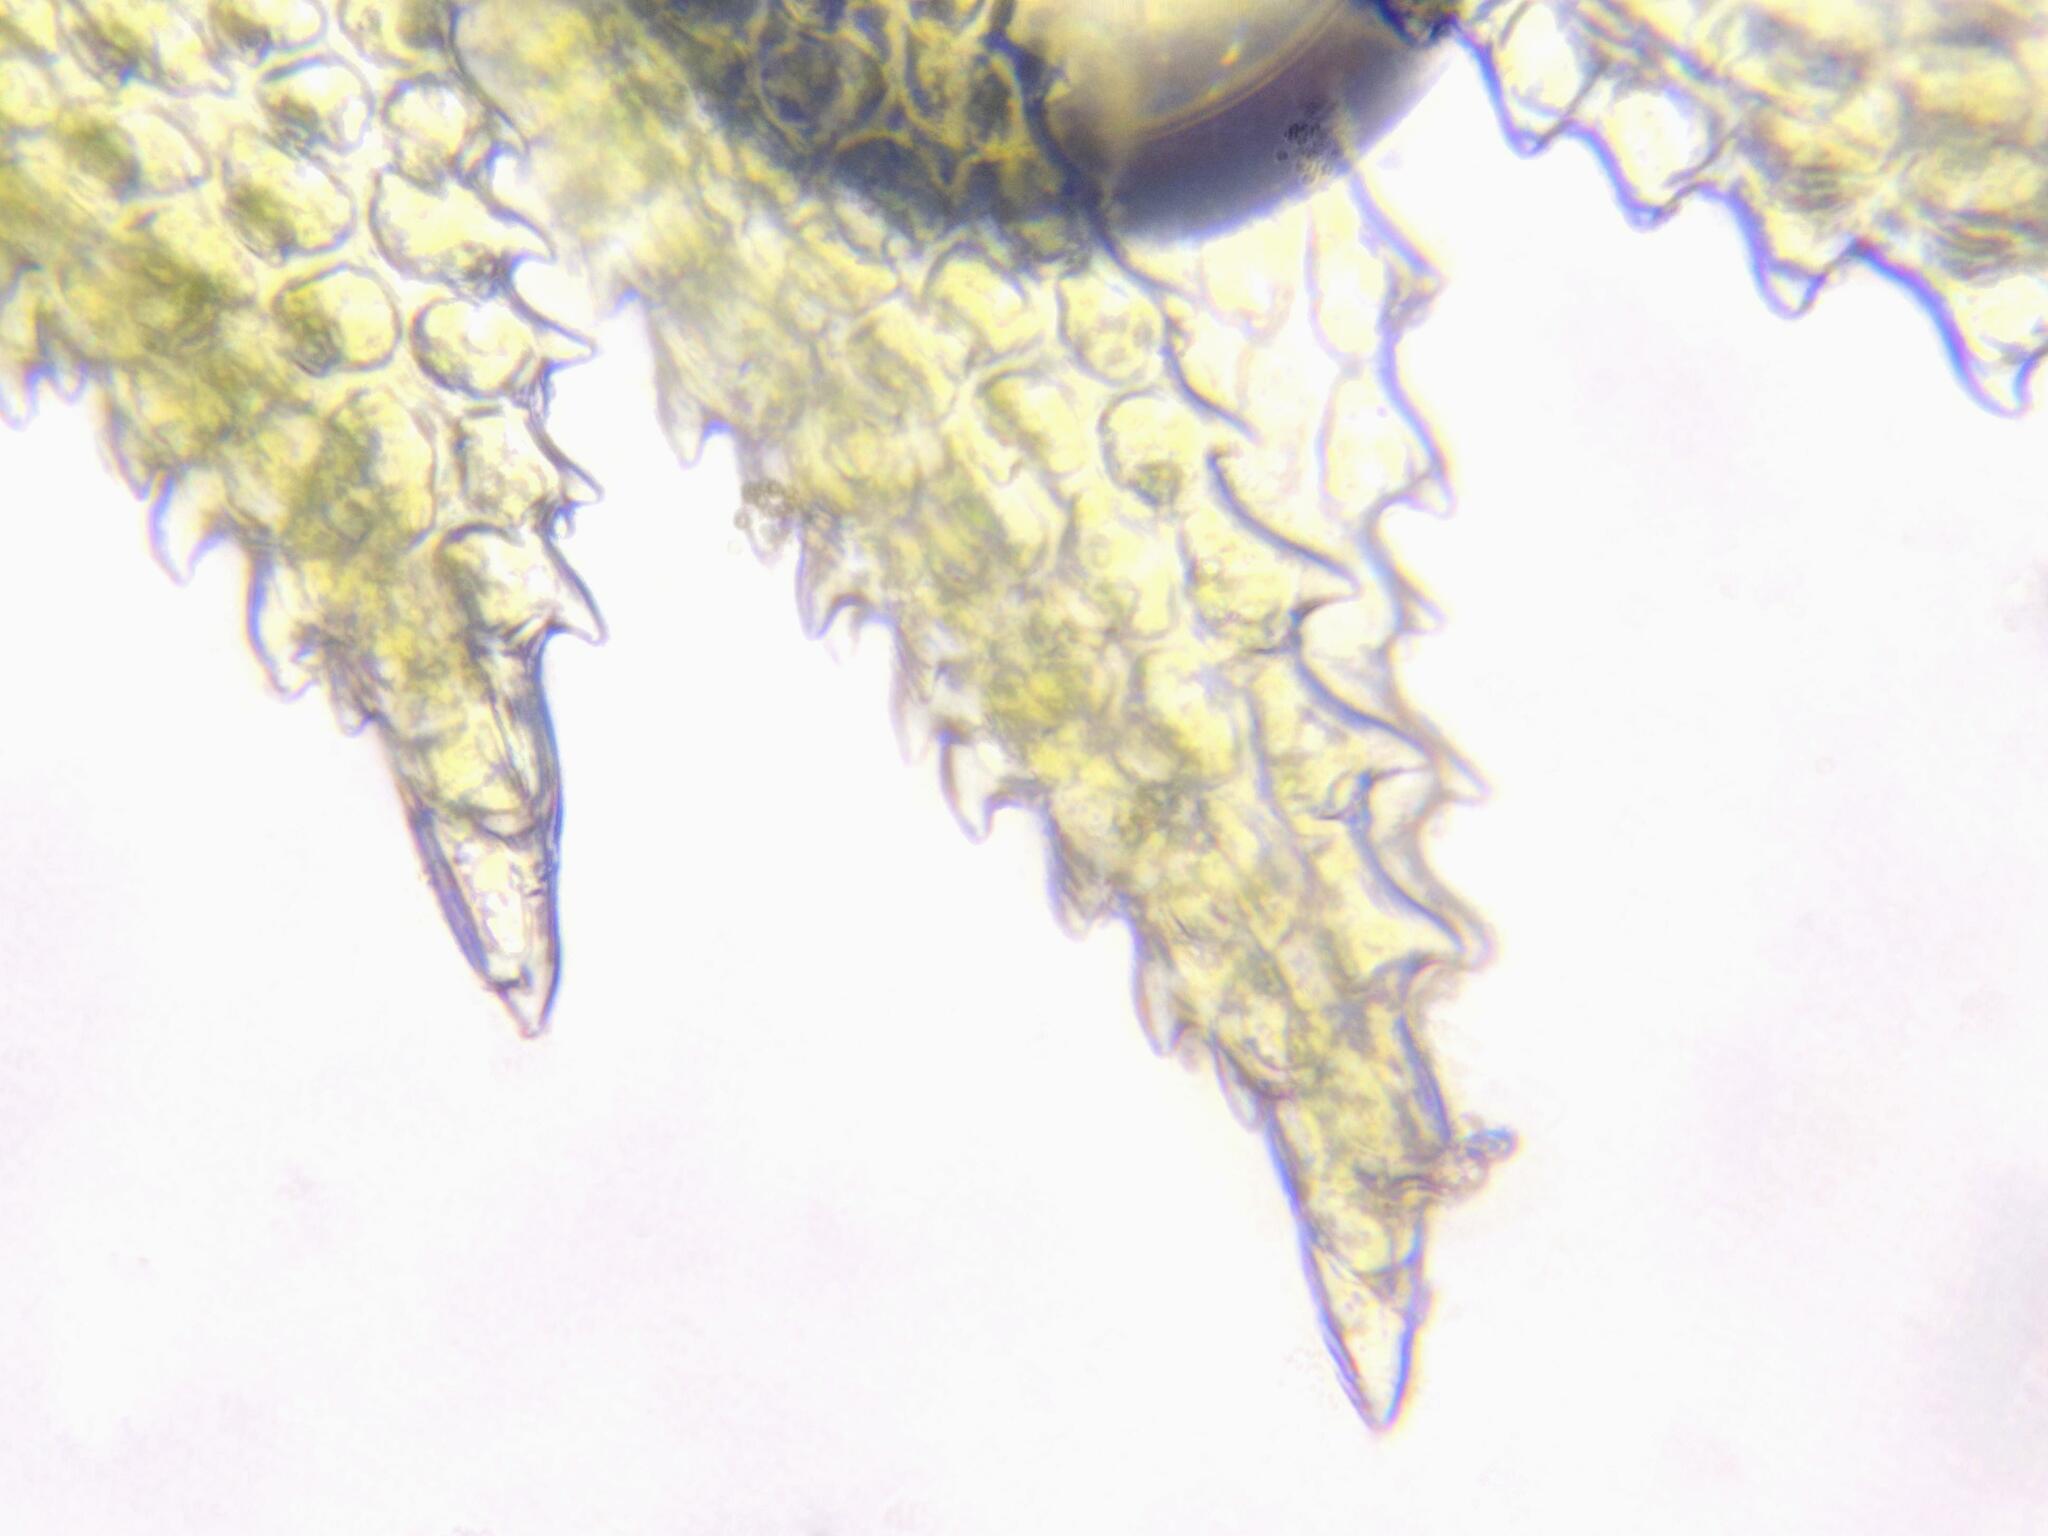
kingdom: Plantae
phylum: Bryophyta
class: Bryopsida
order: Hypnales
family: Thuidiaceae
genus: Thuidium
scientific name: Thuidium tamariscinum
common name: Common tamarisk-moss
